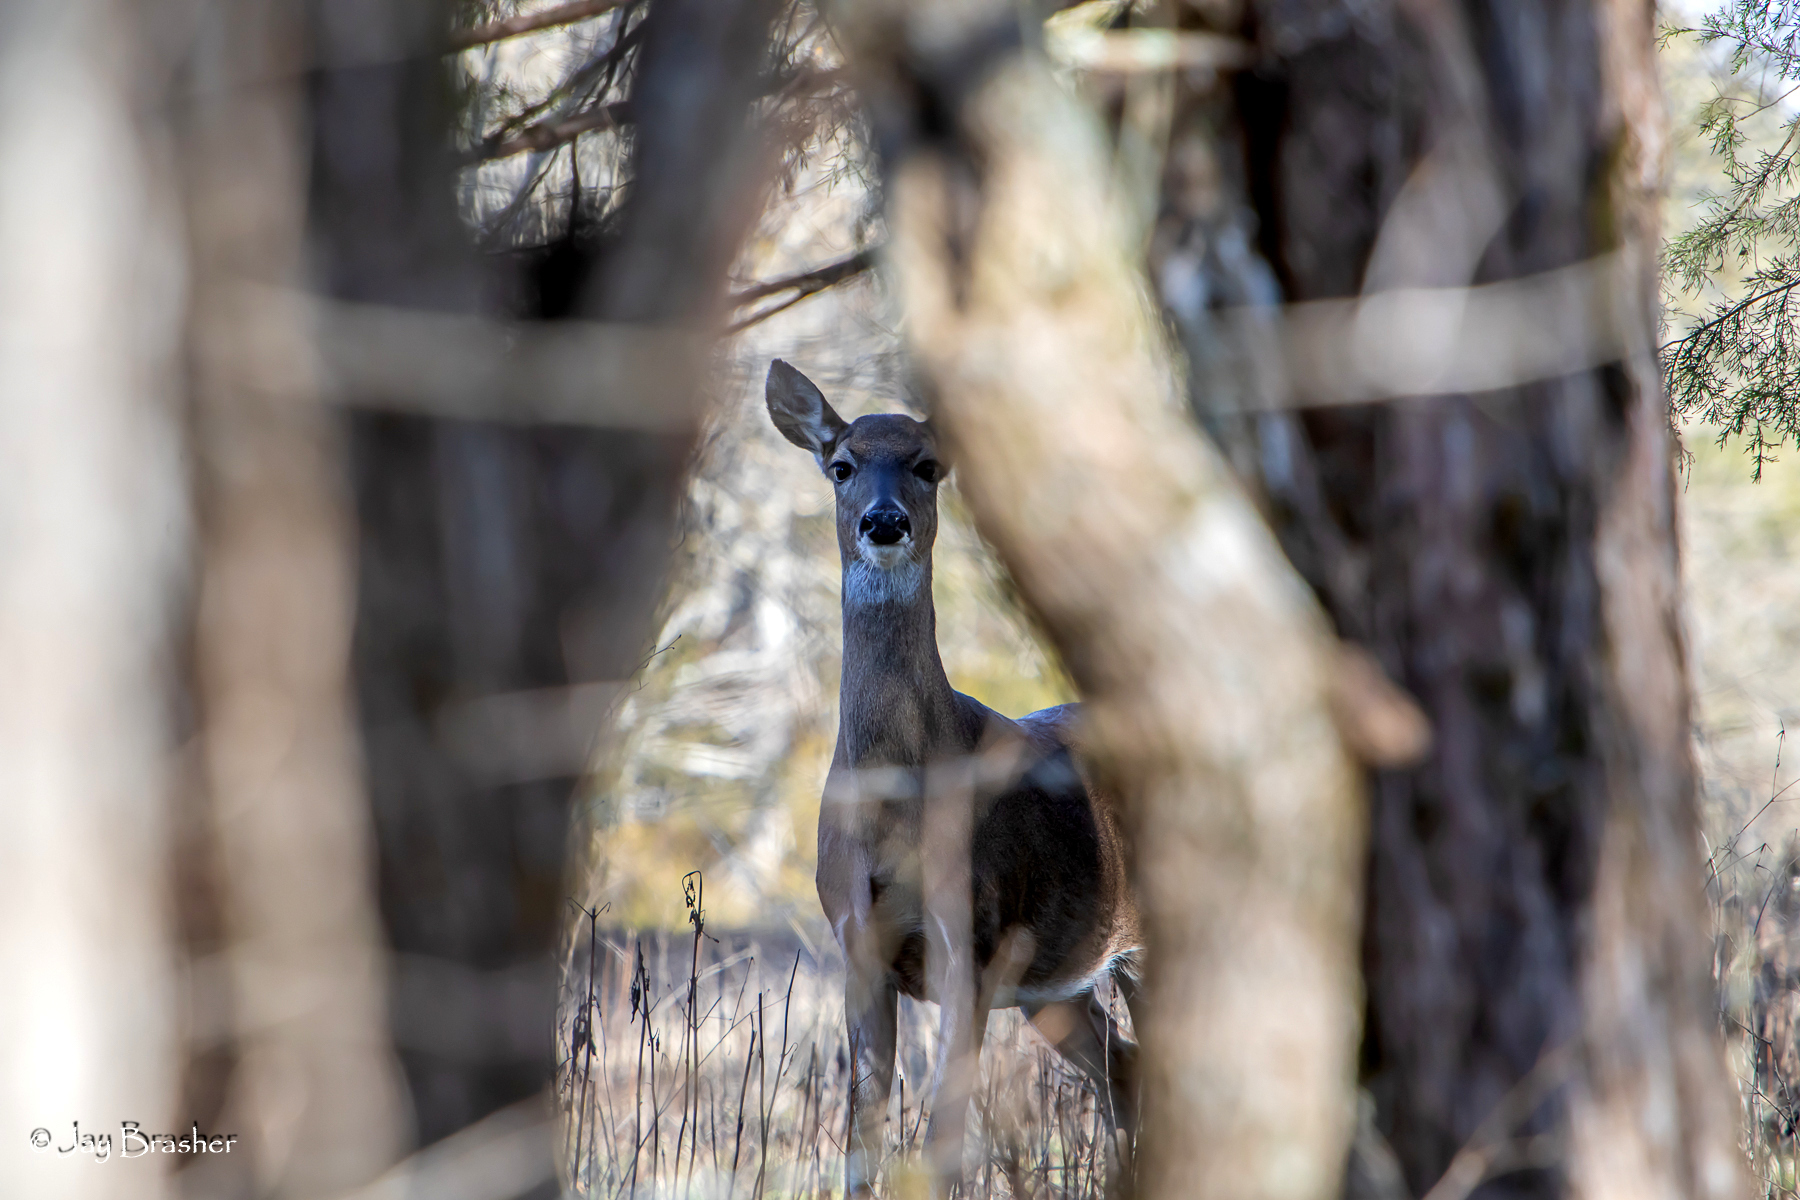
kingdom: Animalia
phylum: Chordata
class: Mammalia
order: Artiodactyla
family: Cervidae
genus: Odocoileus
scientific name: Odocoileus virginianus
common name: White-tailed deer
